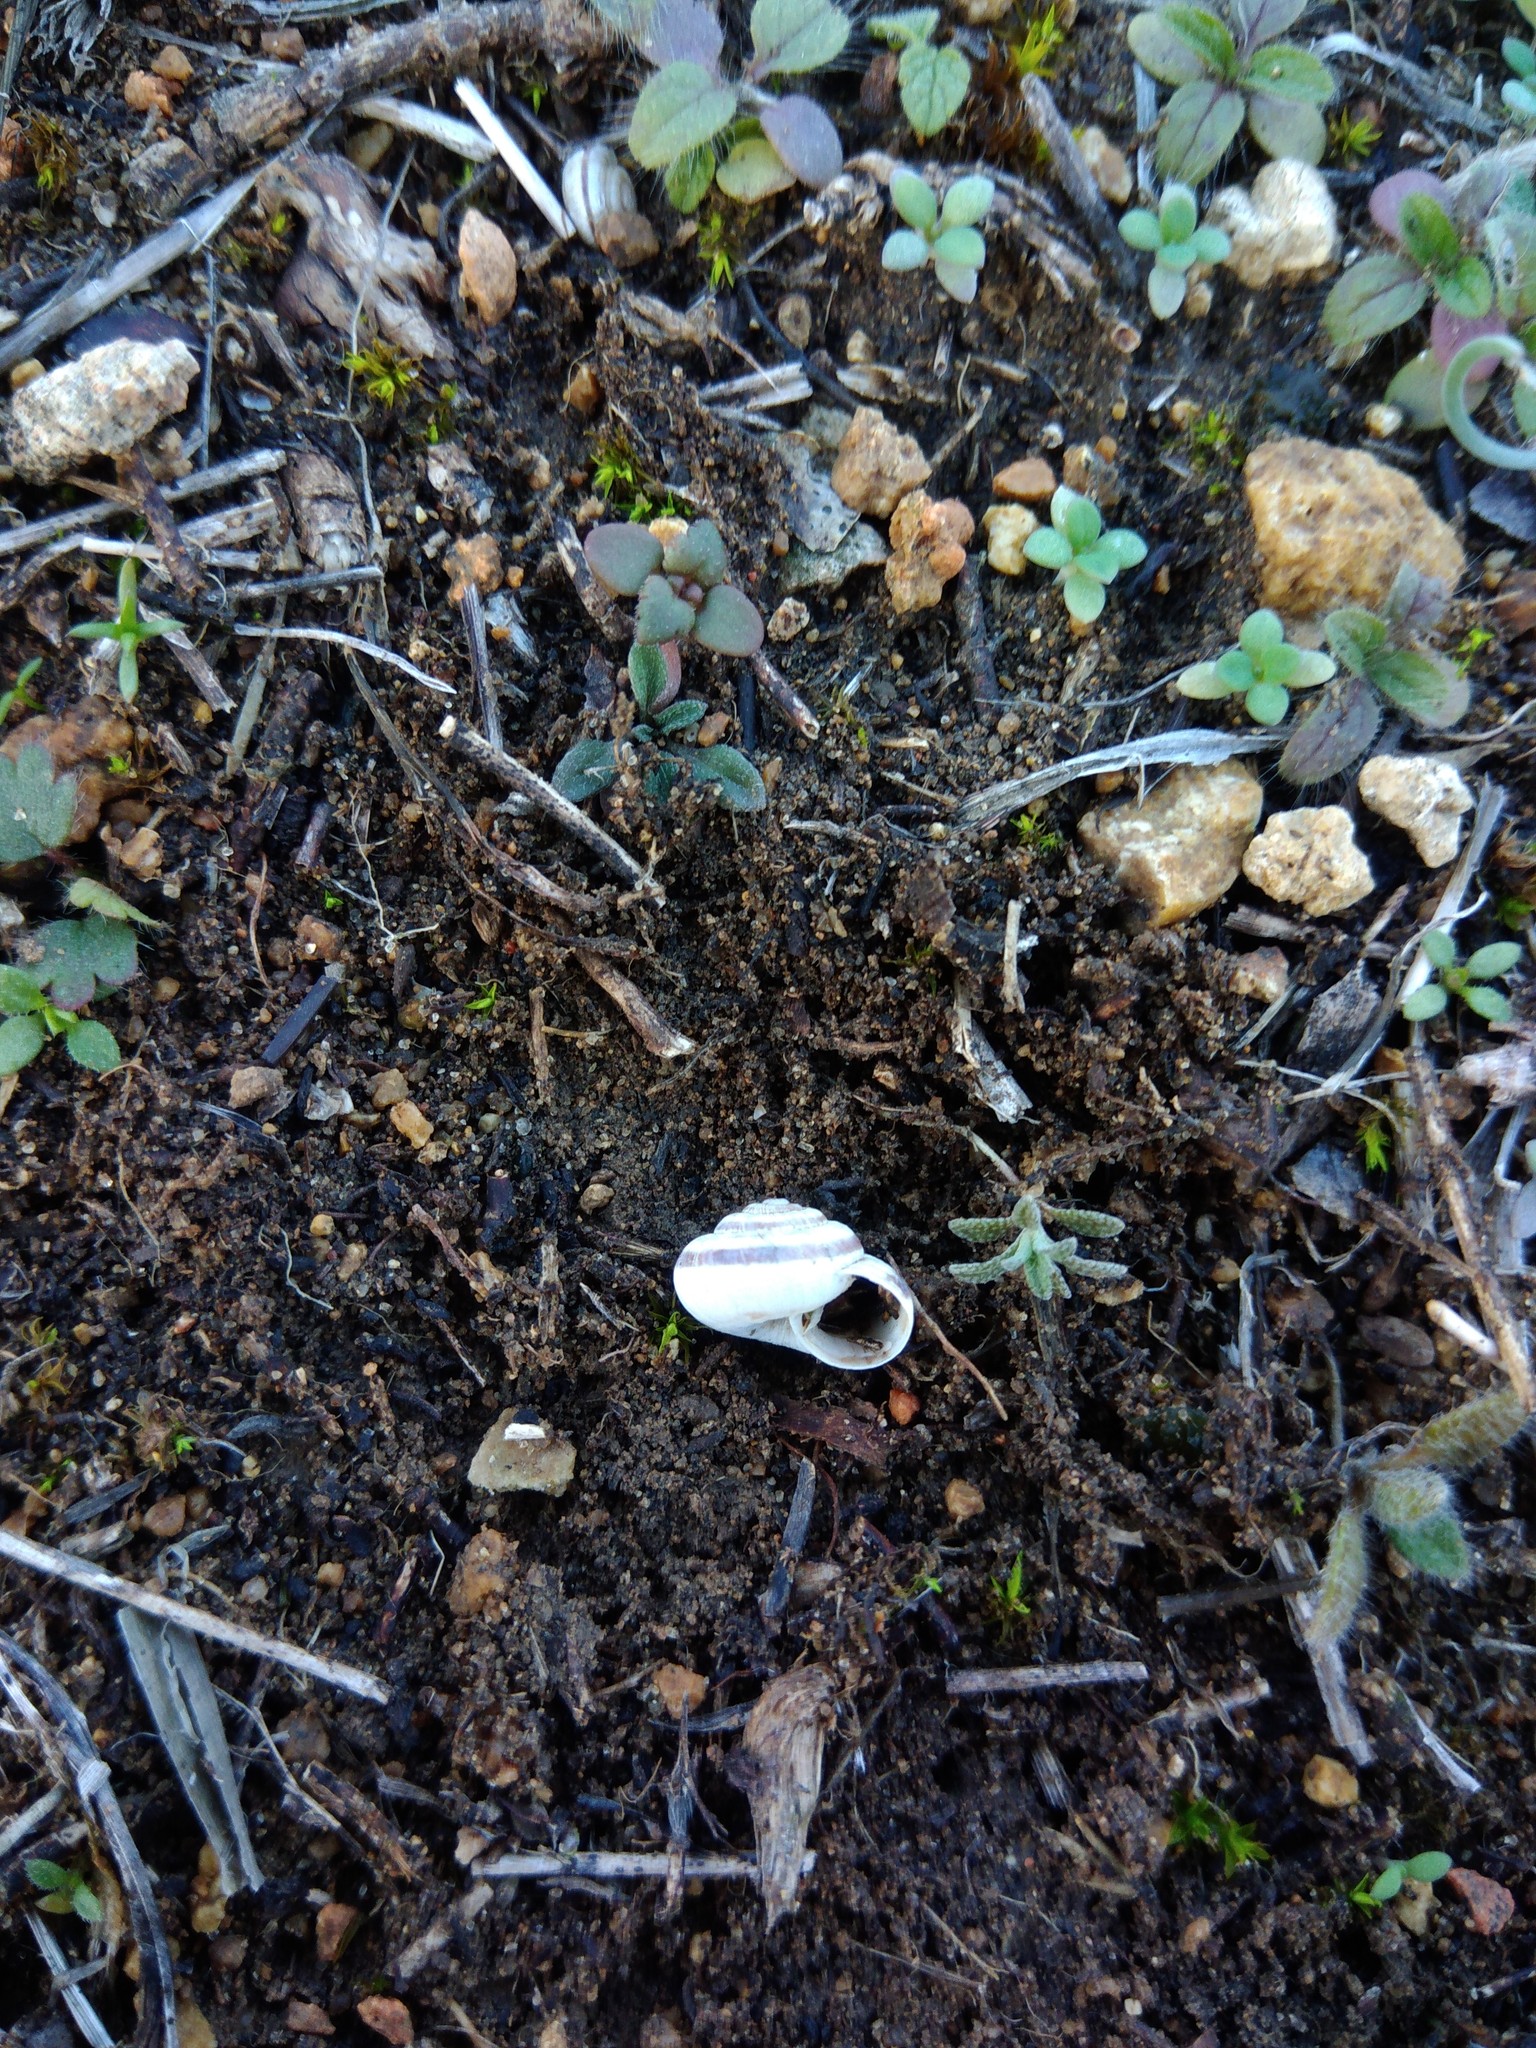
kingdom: Animalia
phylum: Mollusca
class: Gastropoda
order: Stylommatophora
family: Geomitridae
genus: Helicopsis
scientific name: Helicopsis lunulata
